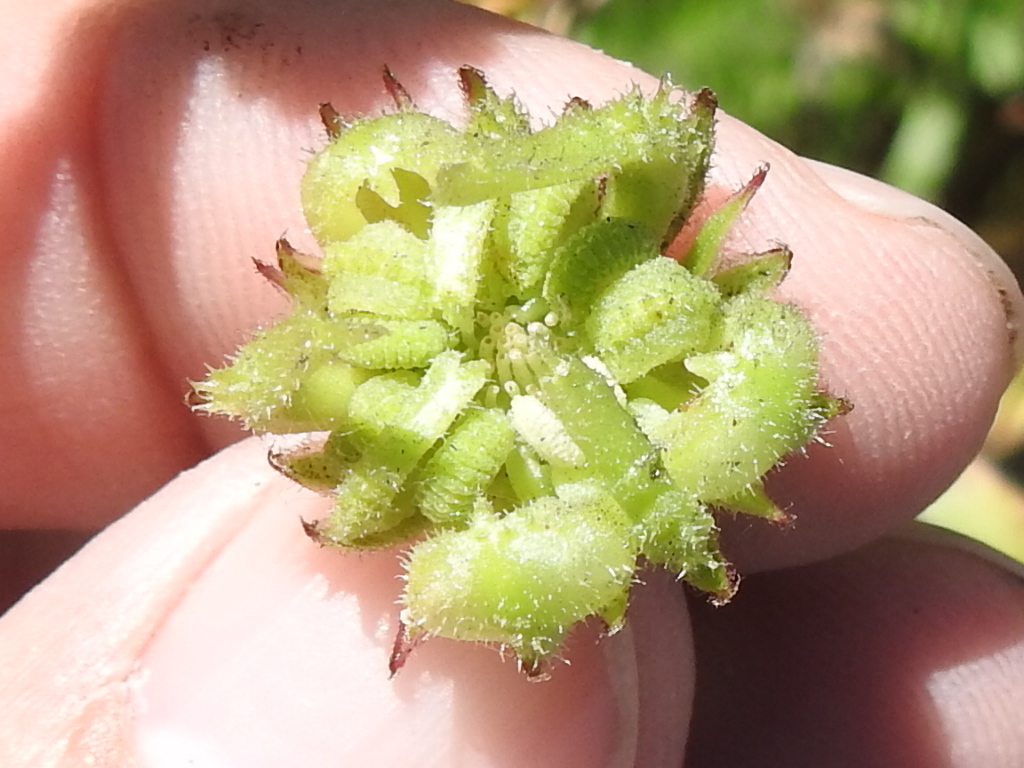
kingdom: Plantae
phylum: Tracheophyta
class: Magnoliopsida
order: Asterales
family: Asteraceae
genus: Calendula
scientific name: Calendula arvensis
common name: Field marigold
